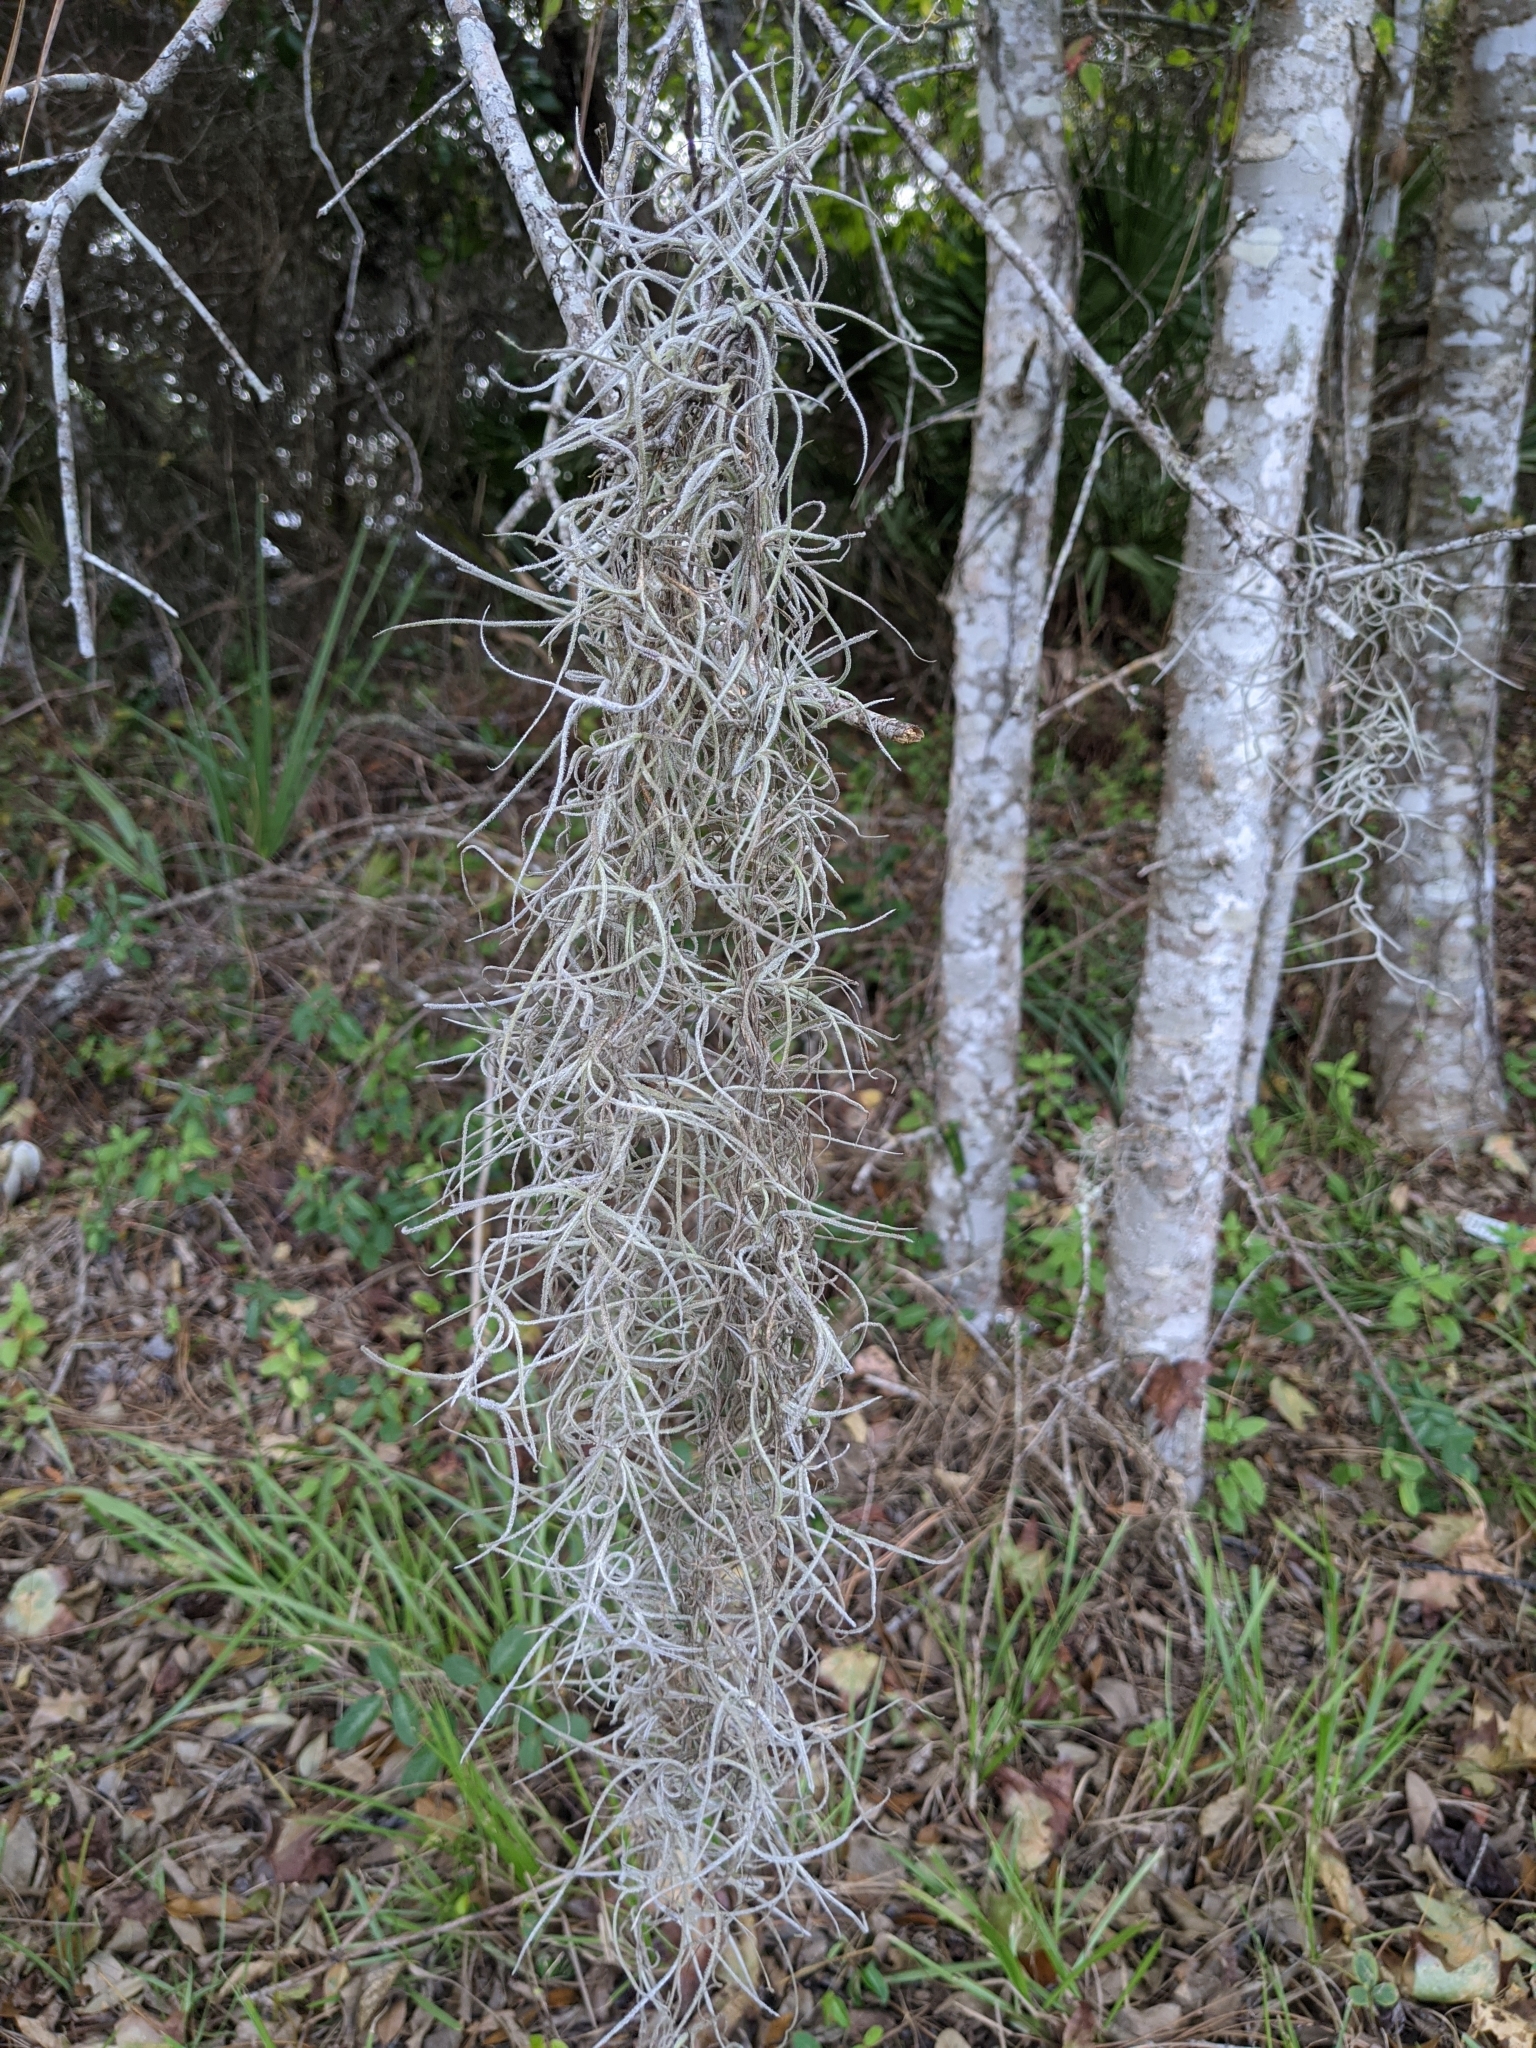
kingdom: Plantae
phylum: Tracheophyta
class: Liliopsida
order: Poales
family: Bromeliaceae
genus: Tillandsia
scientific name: Tillandsia usneoides
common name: Spanish moss
